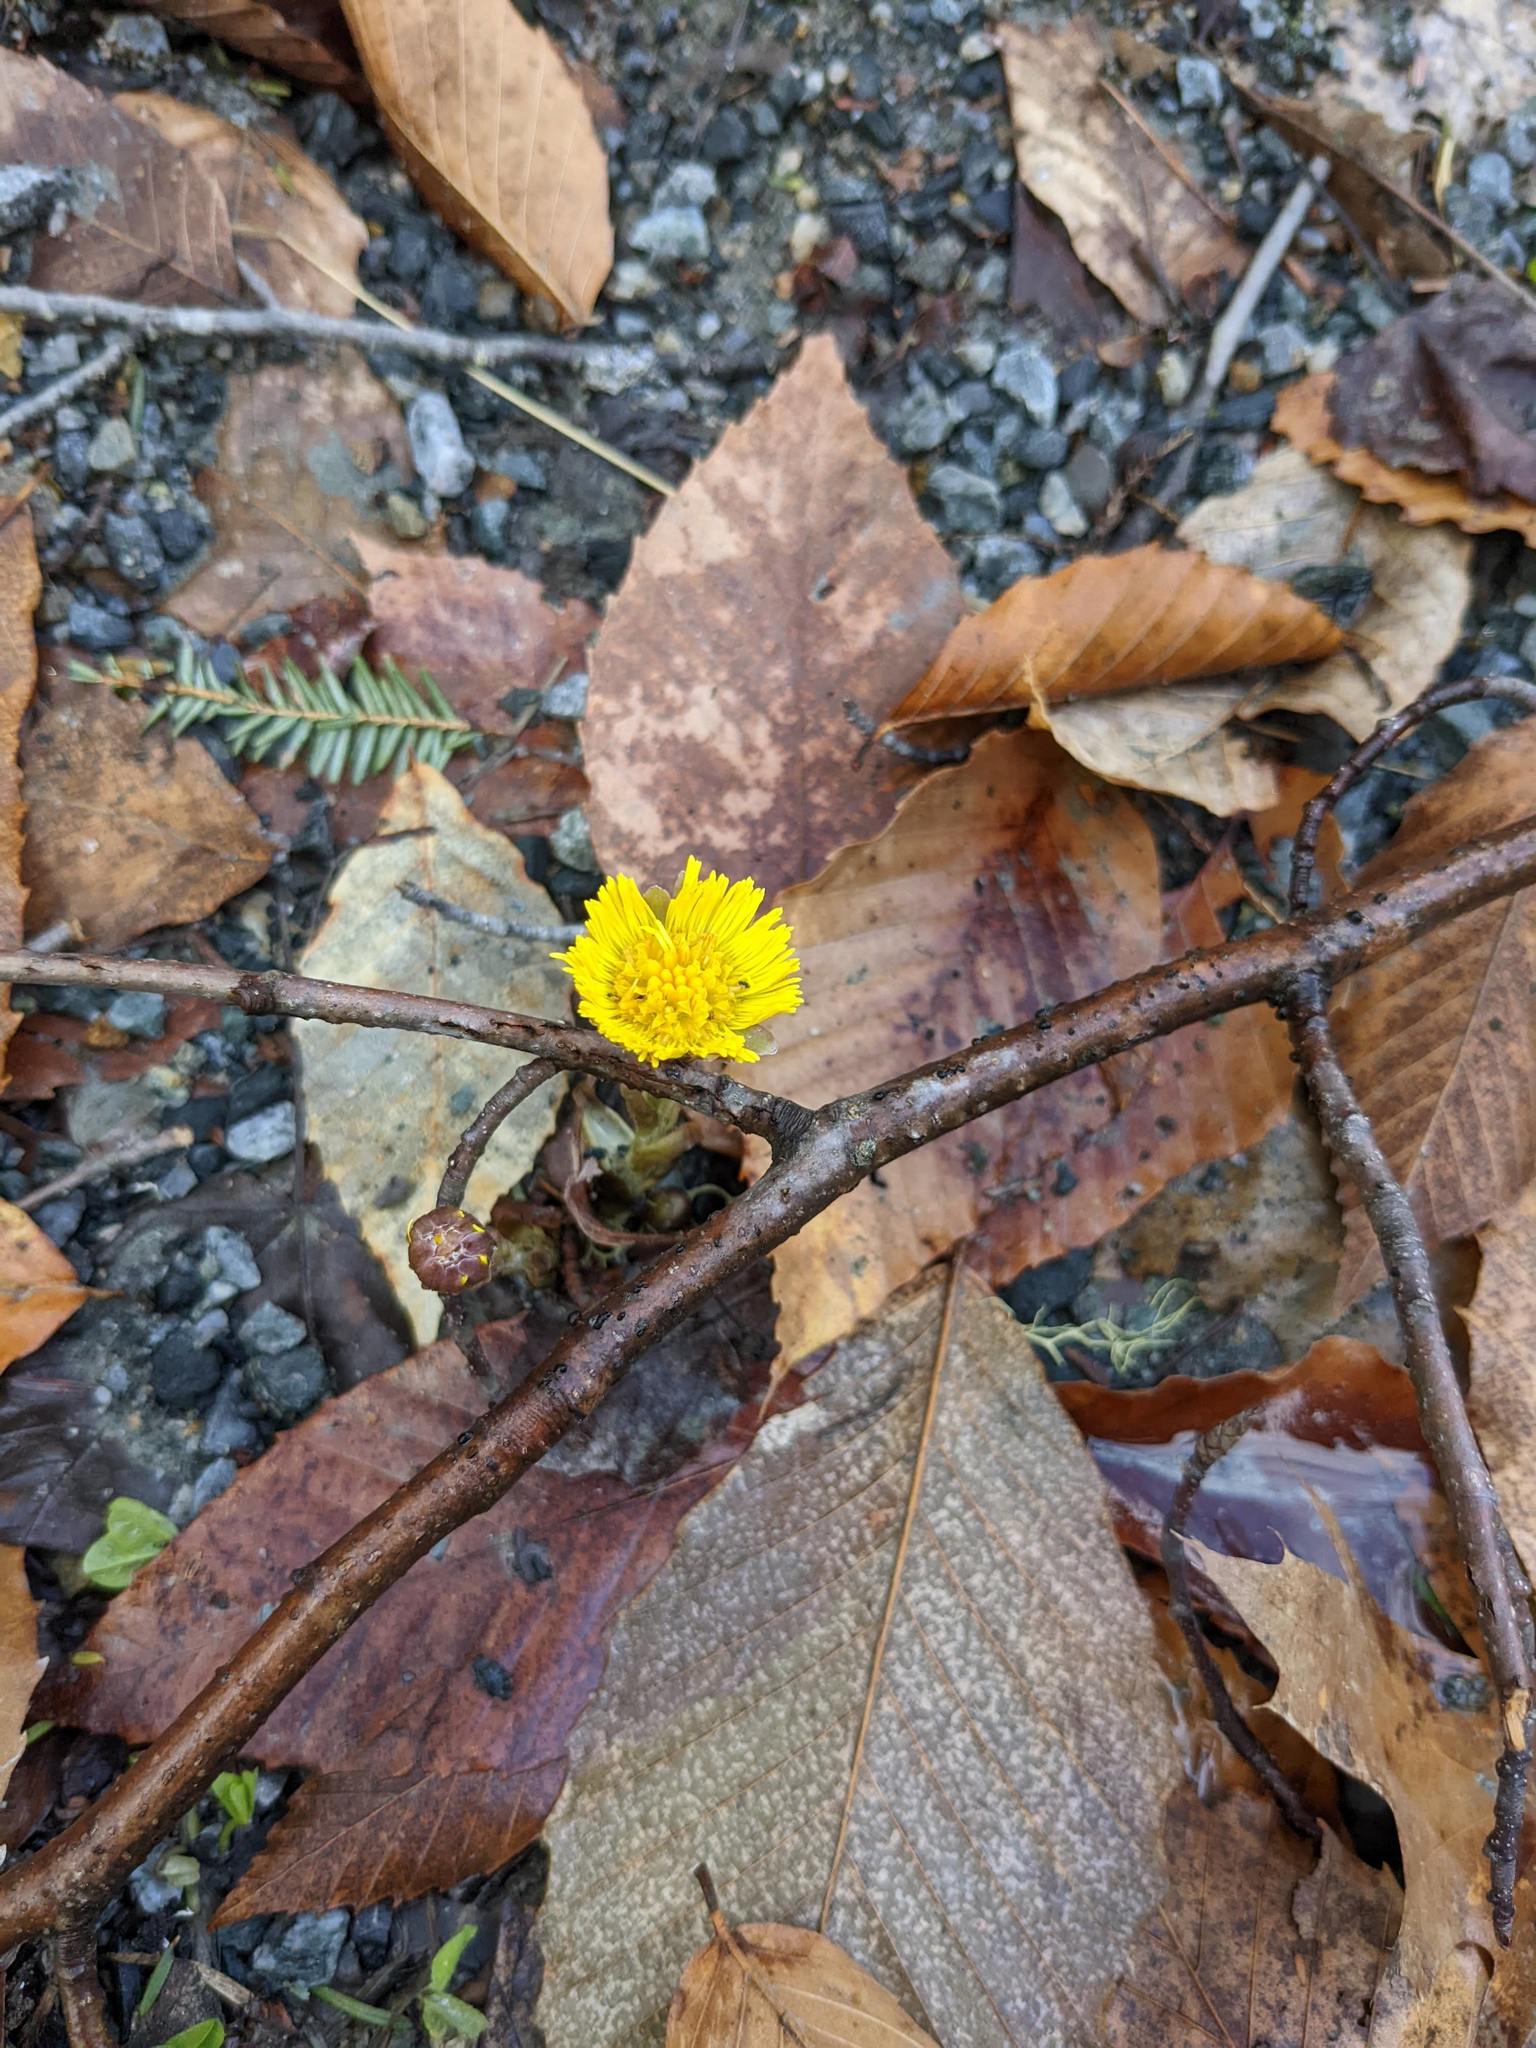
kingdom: Plantae
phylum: Tracheophyta
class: Magnoliopsida
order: Asterales
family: Asteraceae
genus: Tussilago
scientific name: Tussilago farfara
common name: Coltsfoot
